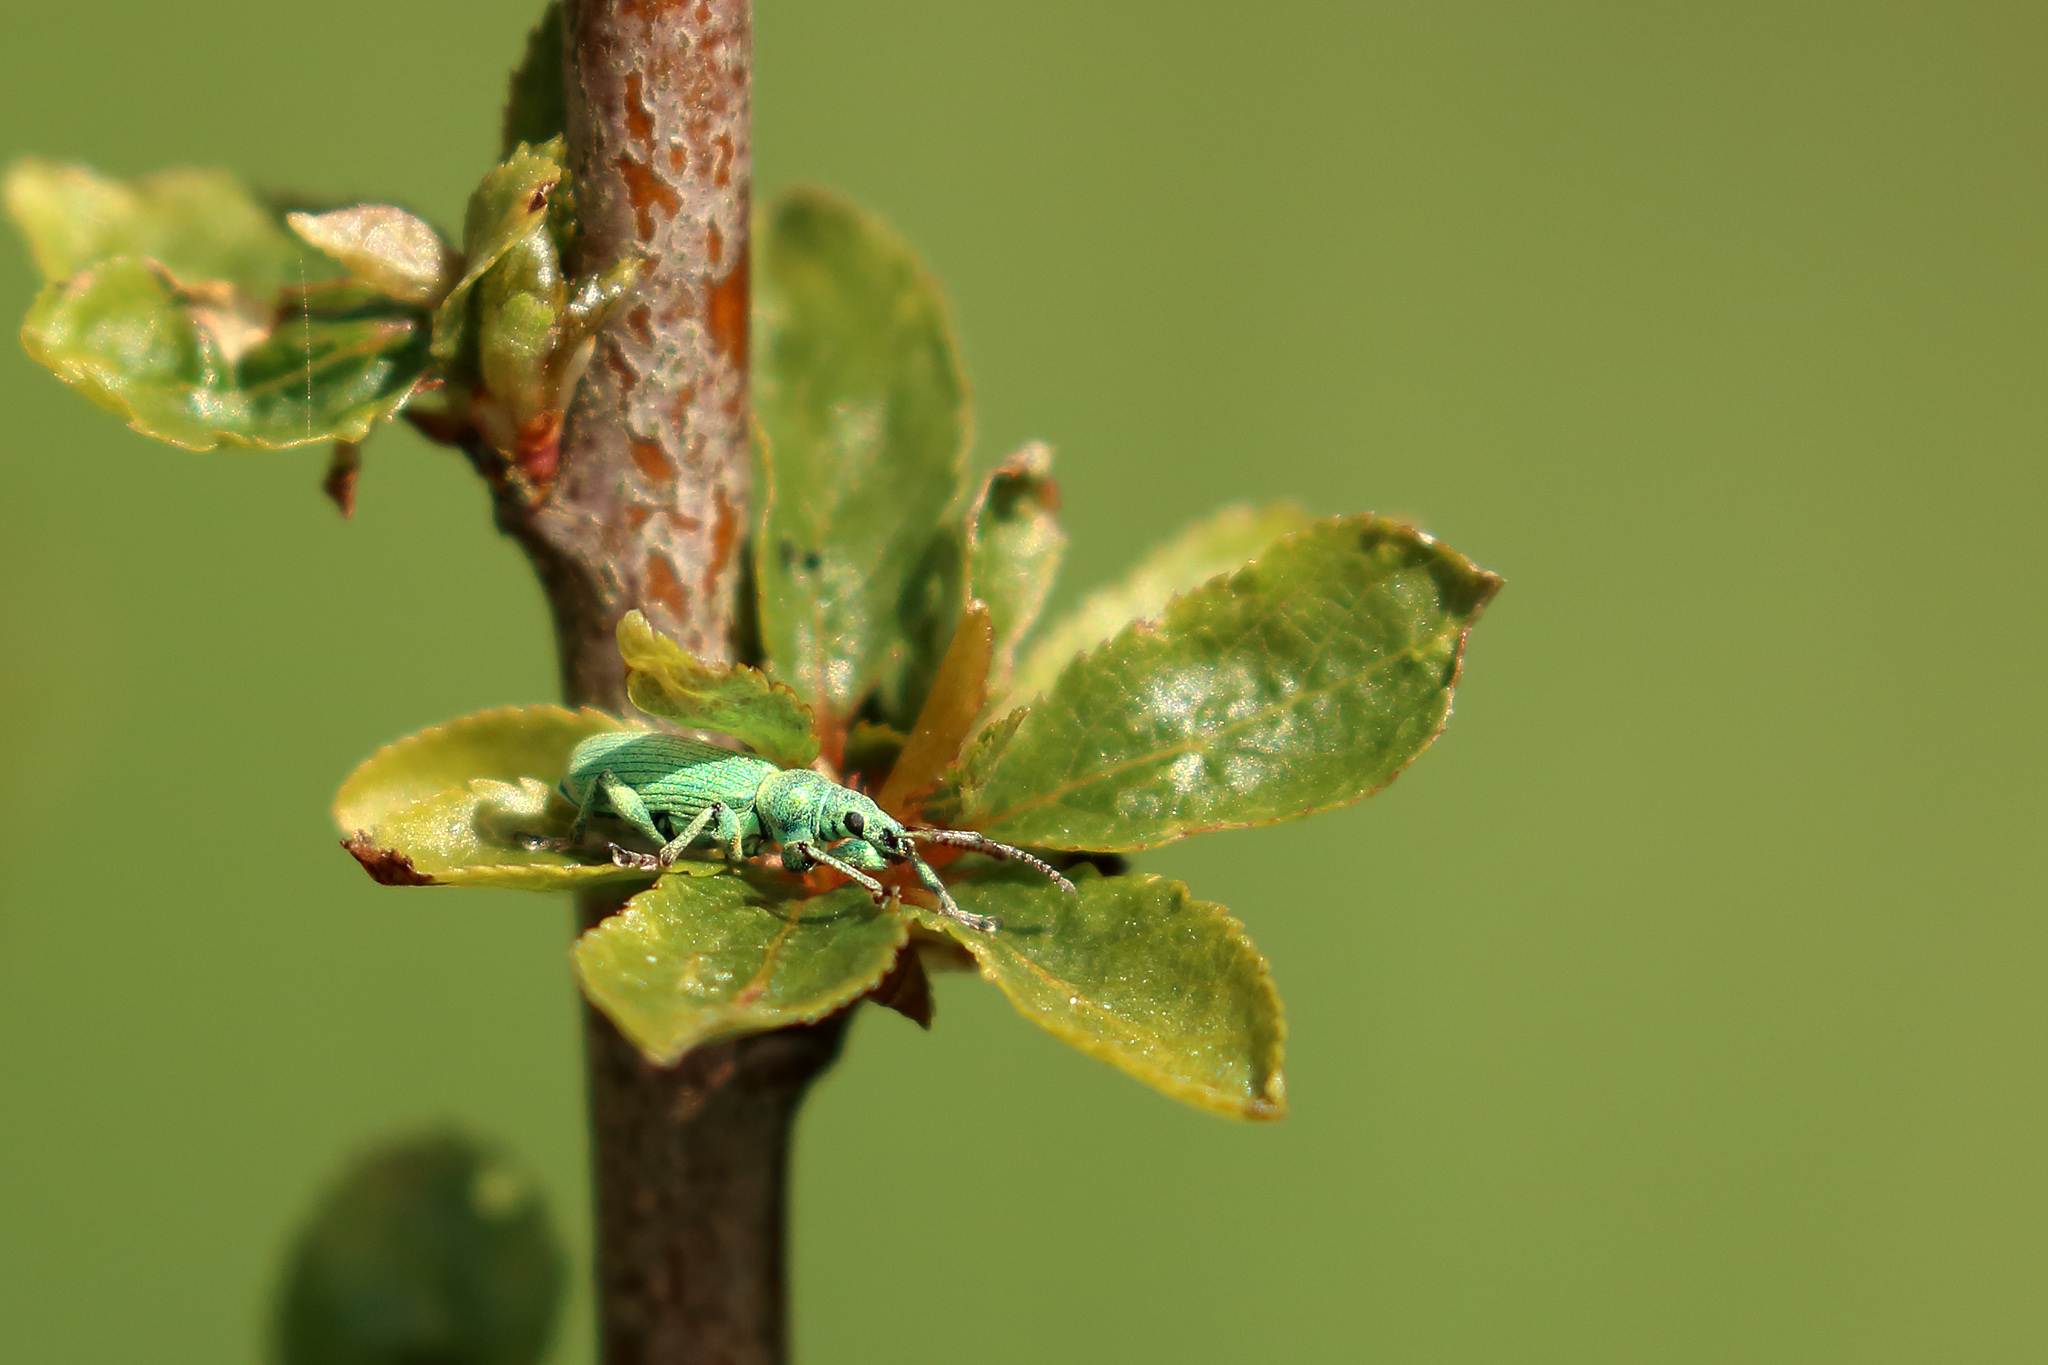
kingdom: Animalia
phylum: Arthropoda
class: Insecta
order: Coleoptera
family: Curculionidae
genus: Phyllobius
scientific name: Phyllobius maculicornis
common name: Green leaf weevil
